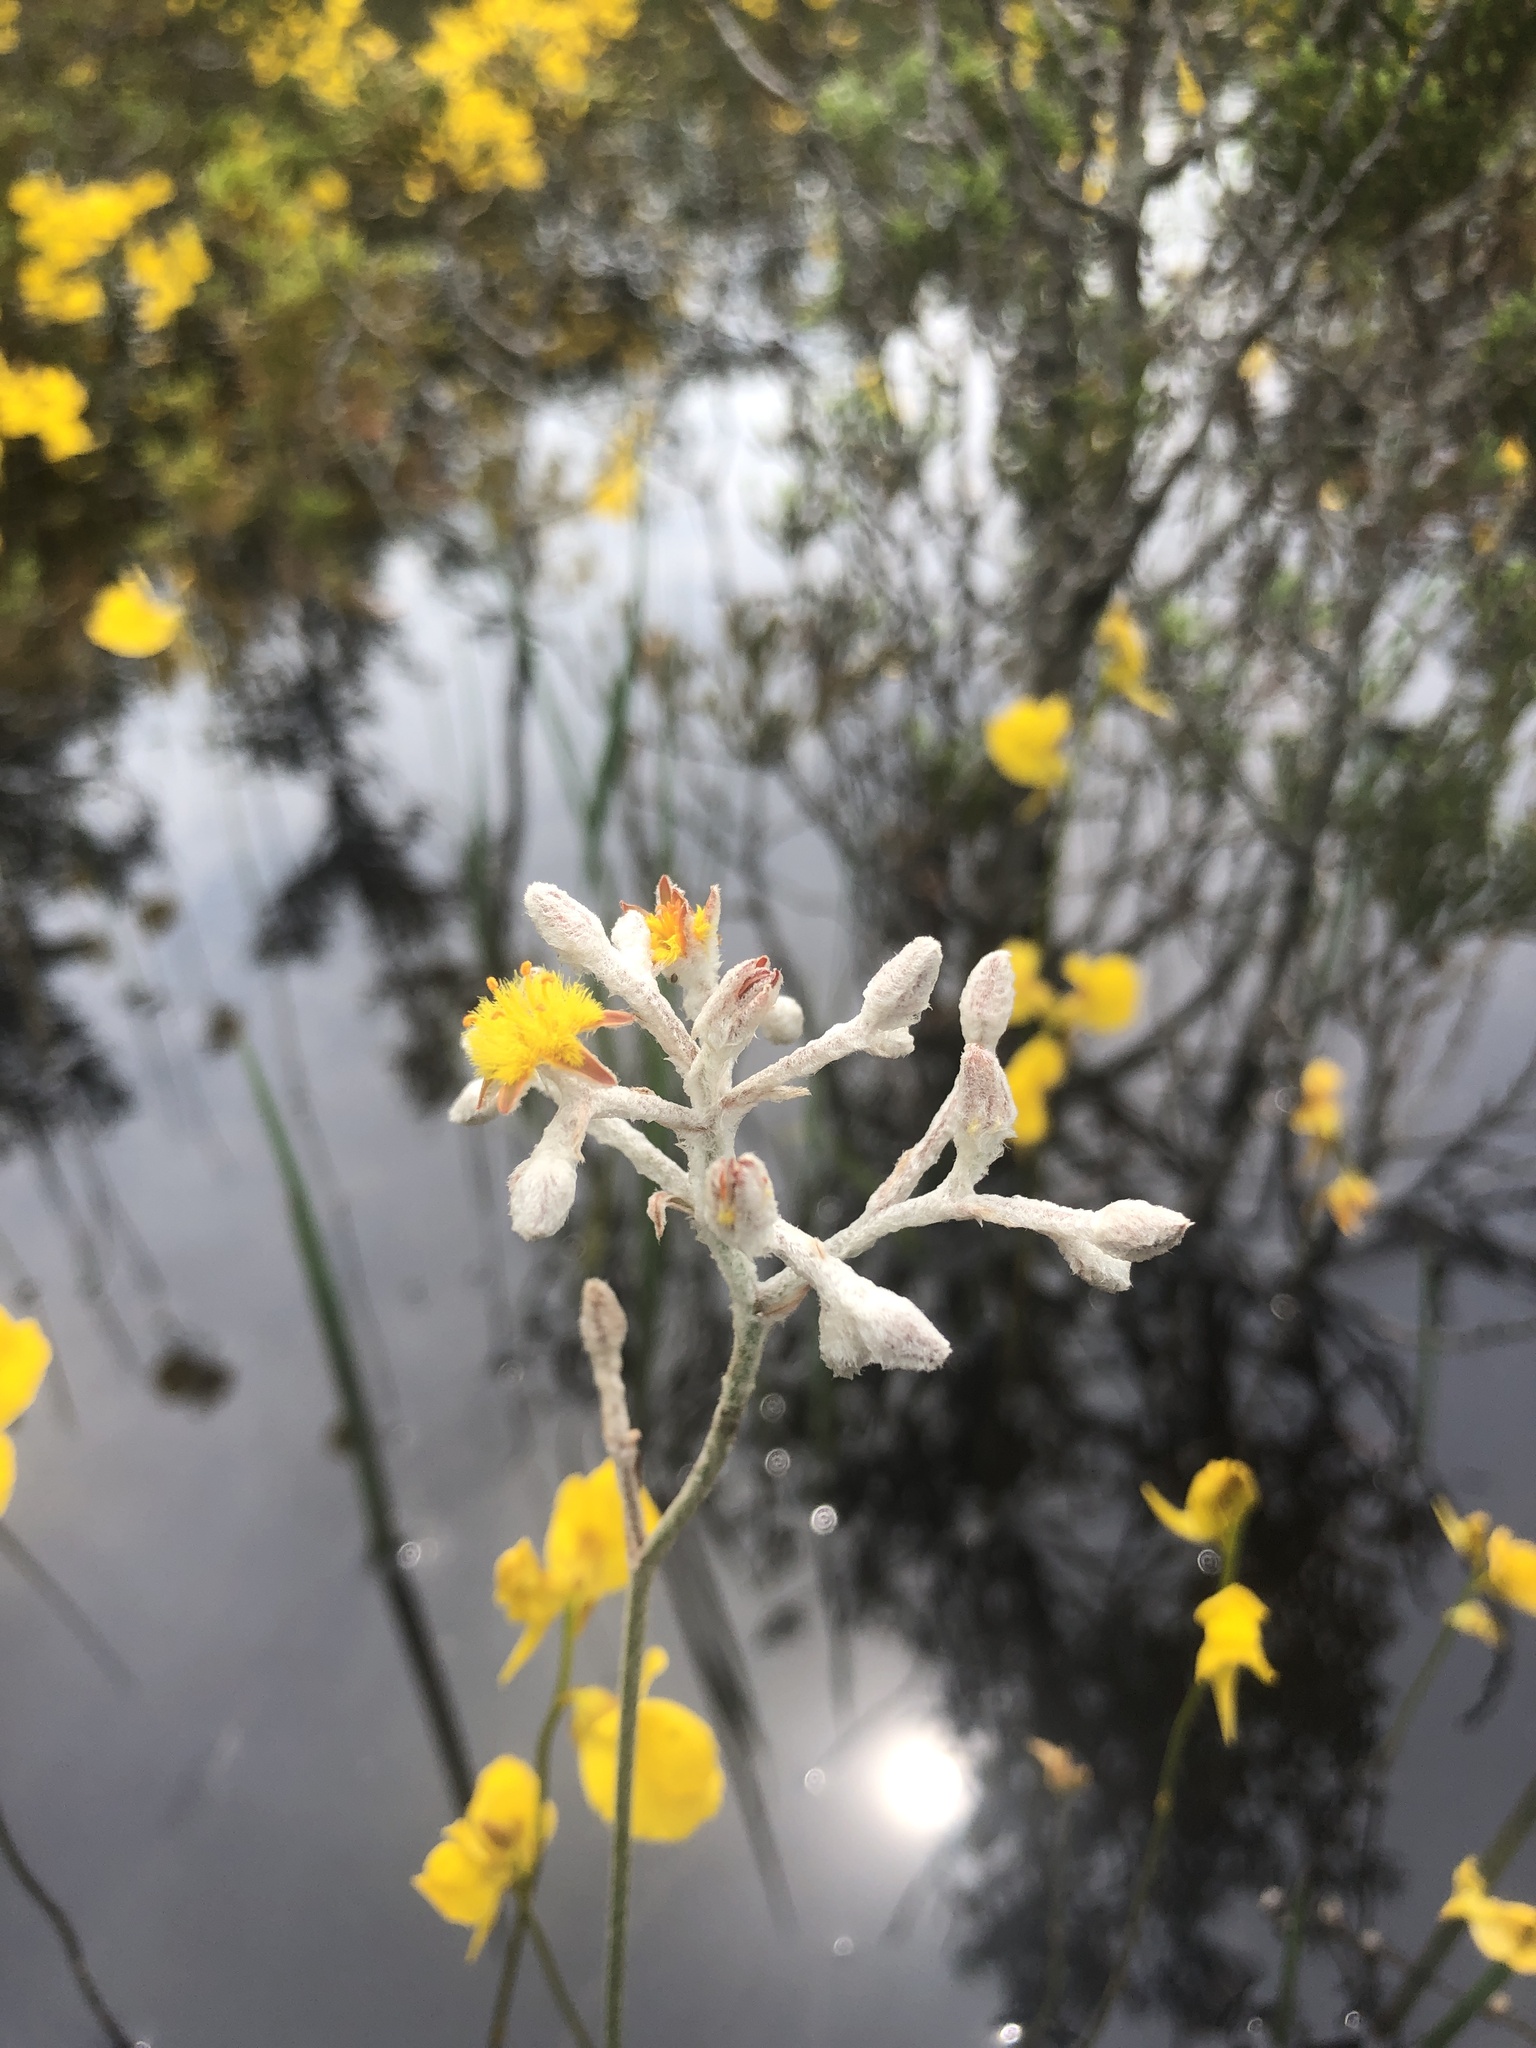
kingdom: Plantae
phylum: Tracheophyta
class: Liliopsida
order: Dioscoreales
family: Nartheciaceae
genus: Lophiola
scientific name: Lophiola aurea
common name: Golden-crest
